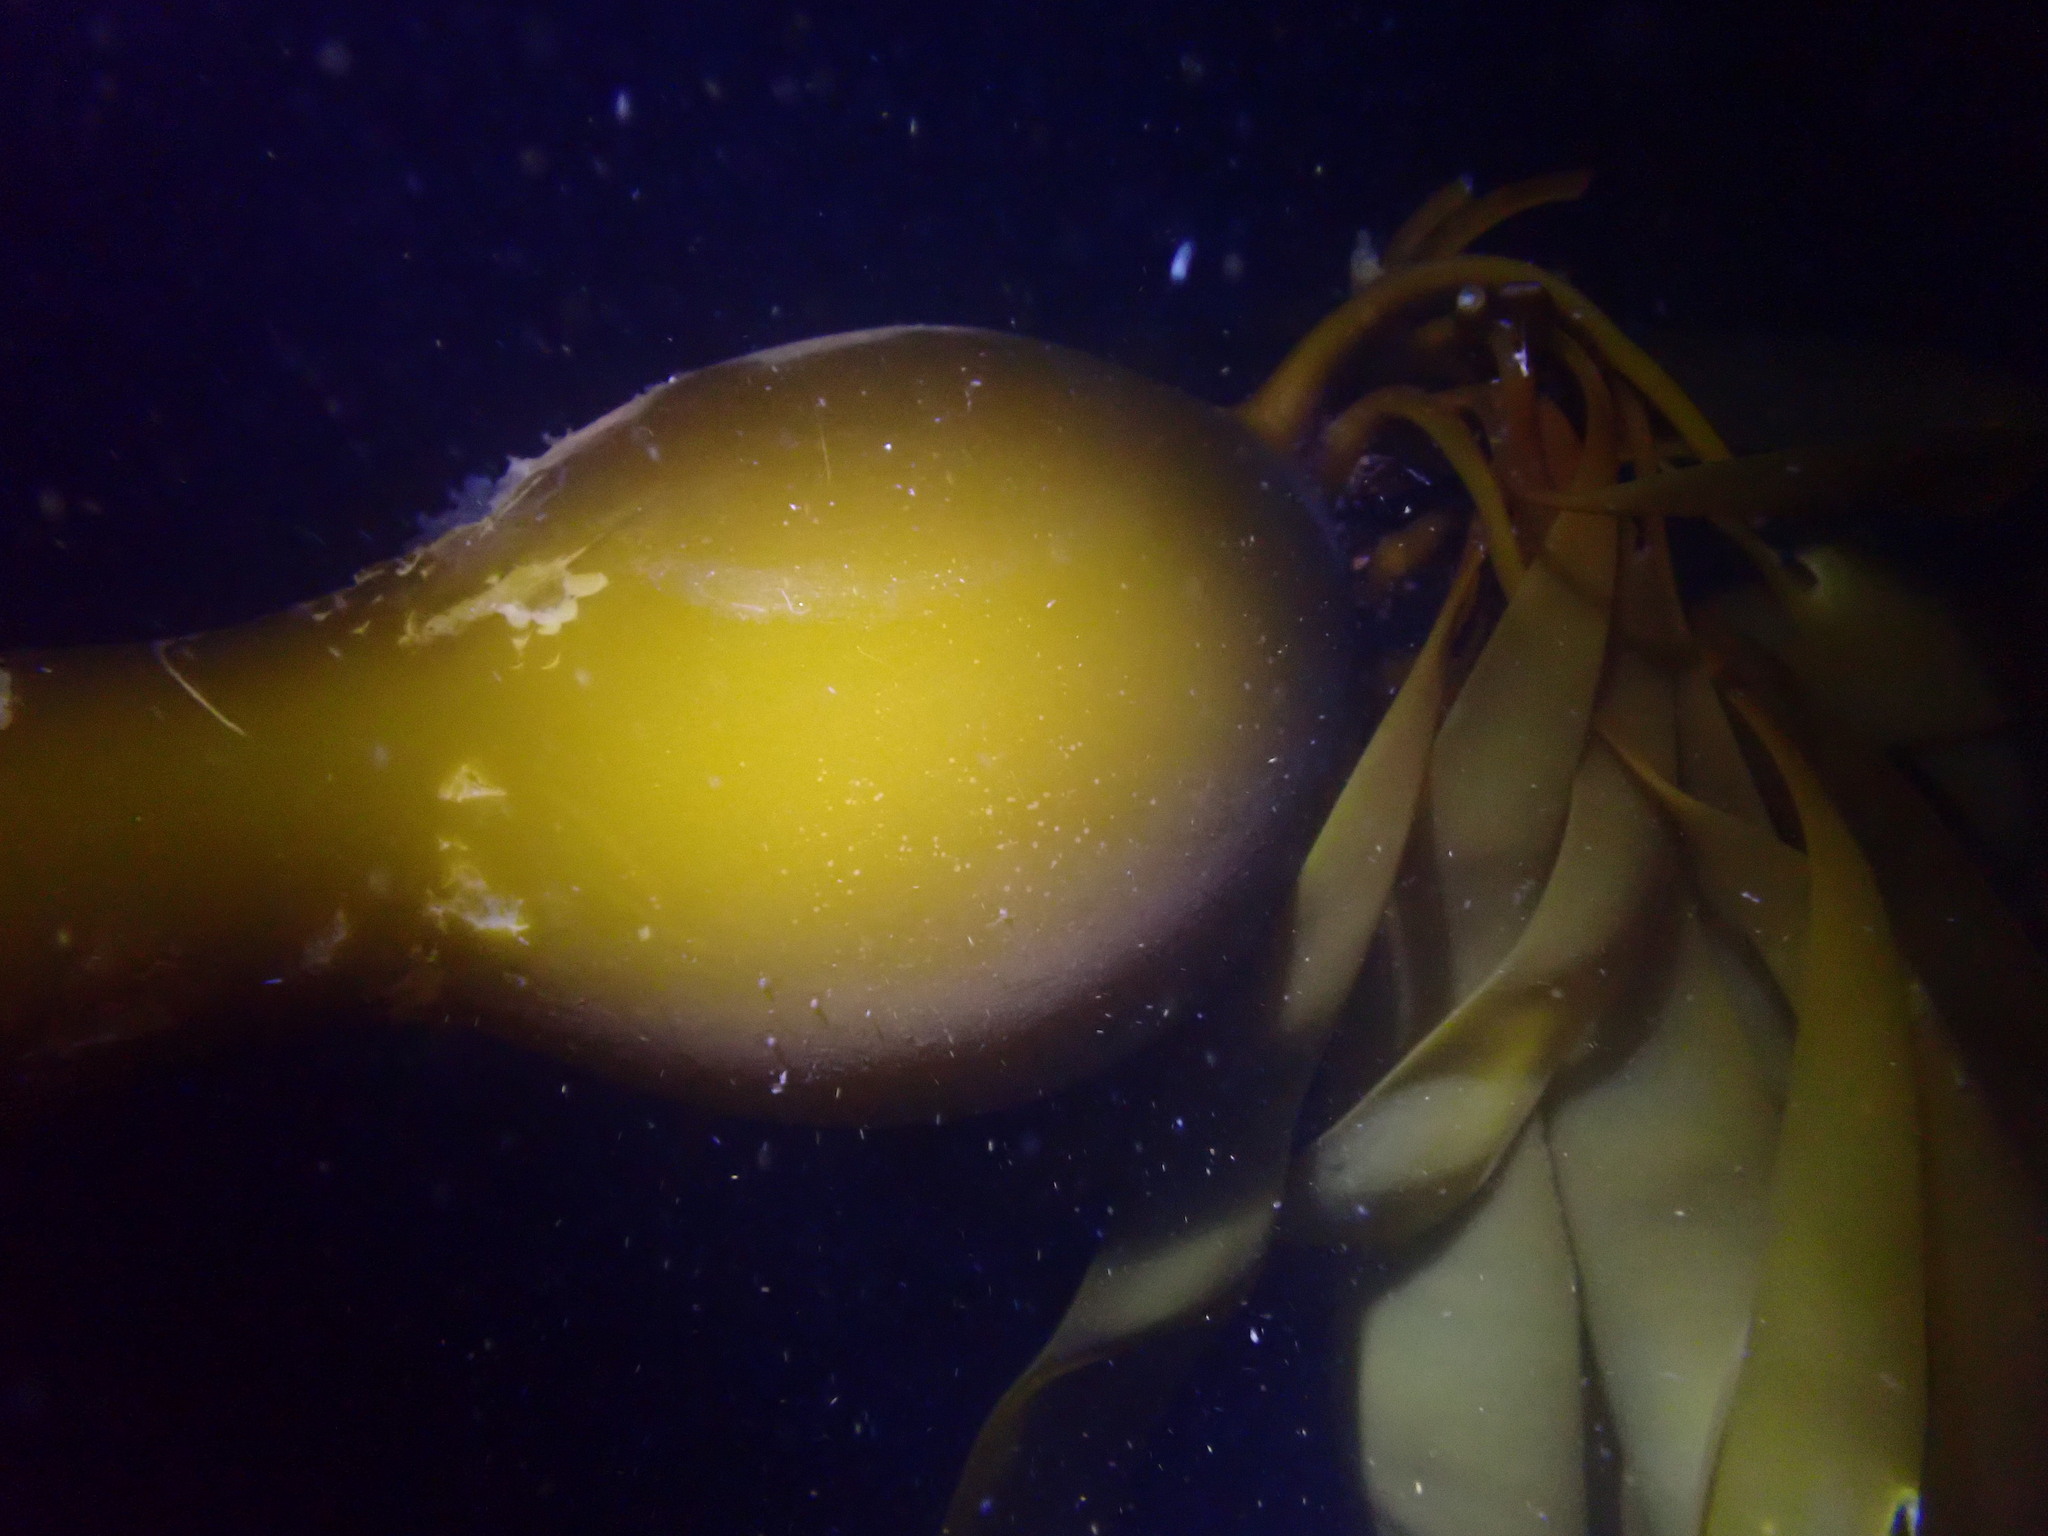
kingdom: Chromista
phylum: Ochrophyta
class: Phaeophyceae
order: Laminariales
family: Laminariaceae
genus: Nereocystis
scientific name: Nereocystis luetkeana
